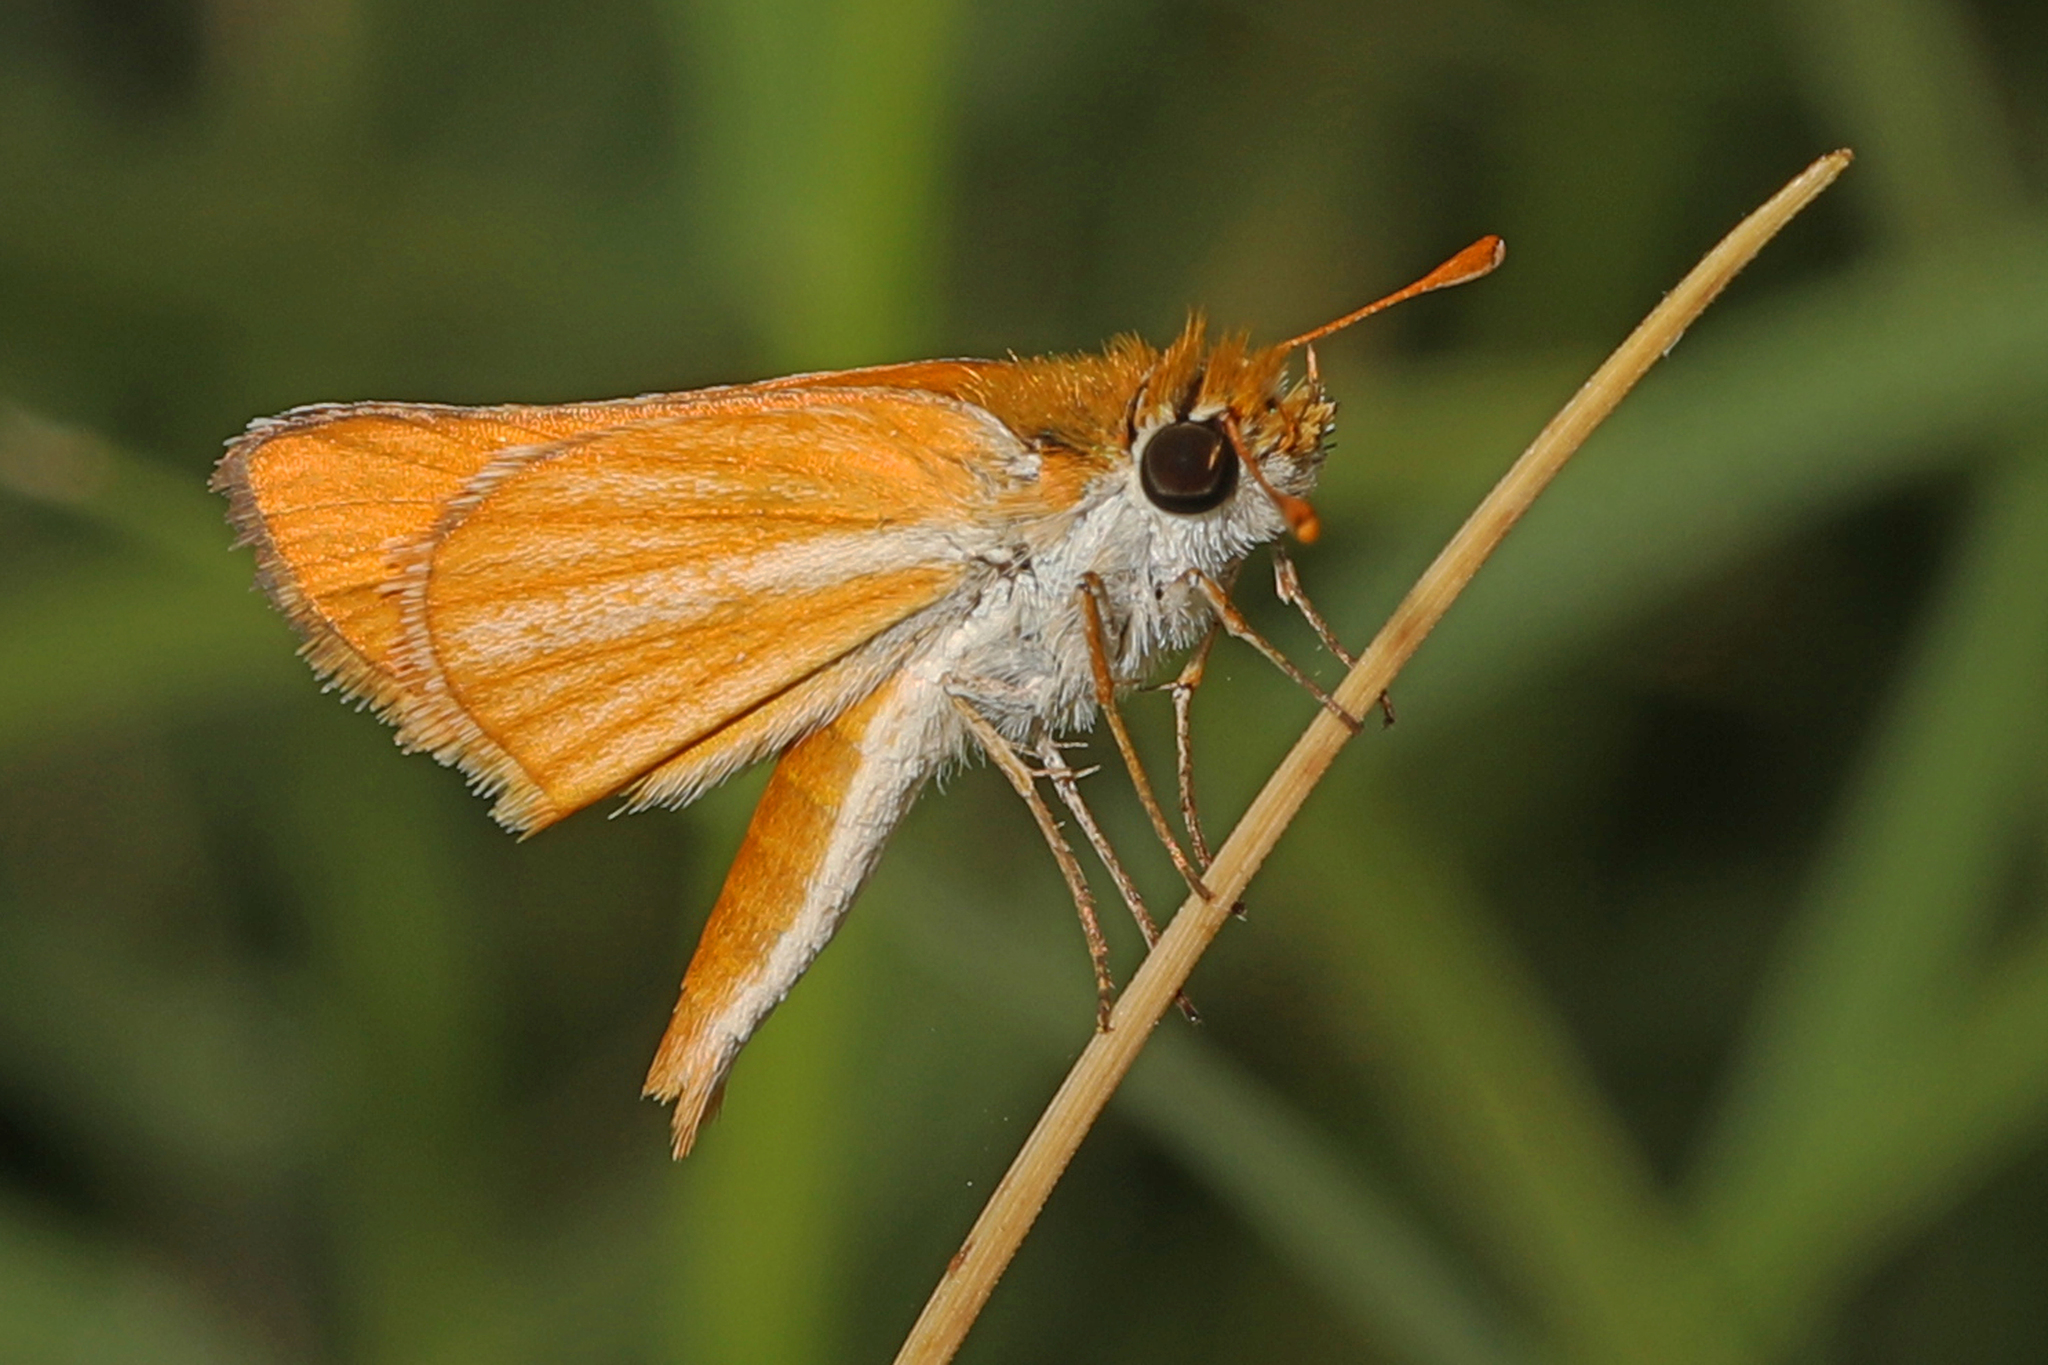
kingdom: Animalia
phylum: Arthropoda
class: Insecta
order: Lepidoptera
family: Hesperiidae
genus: Copaeodes
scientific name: Copaeodes minima
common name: Southern skipperling
